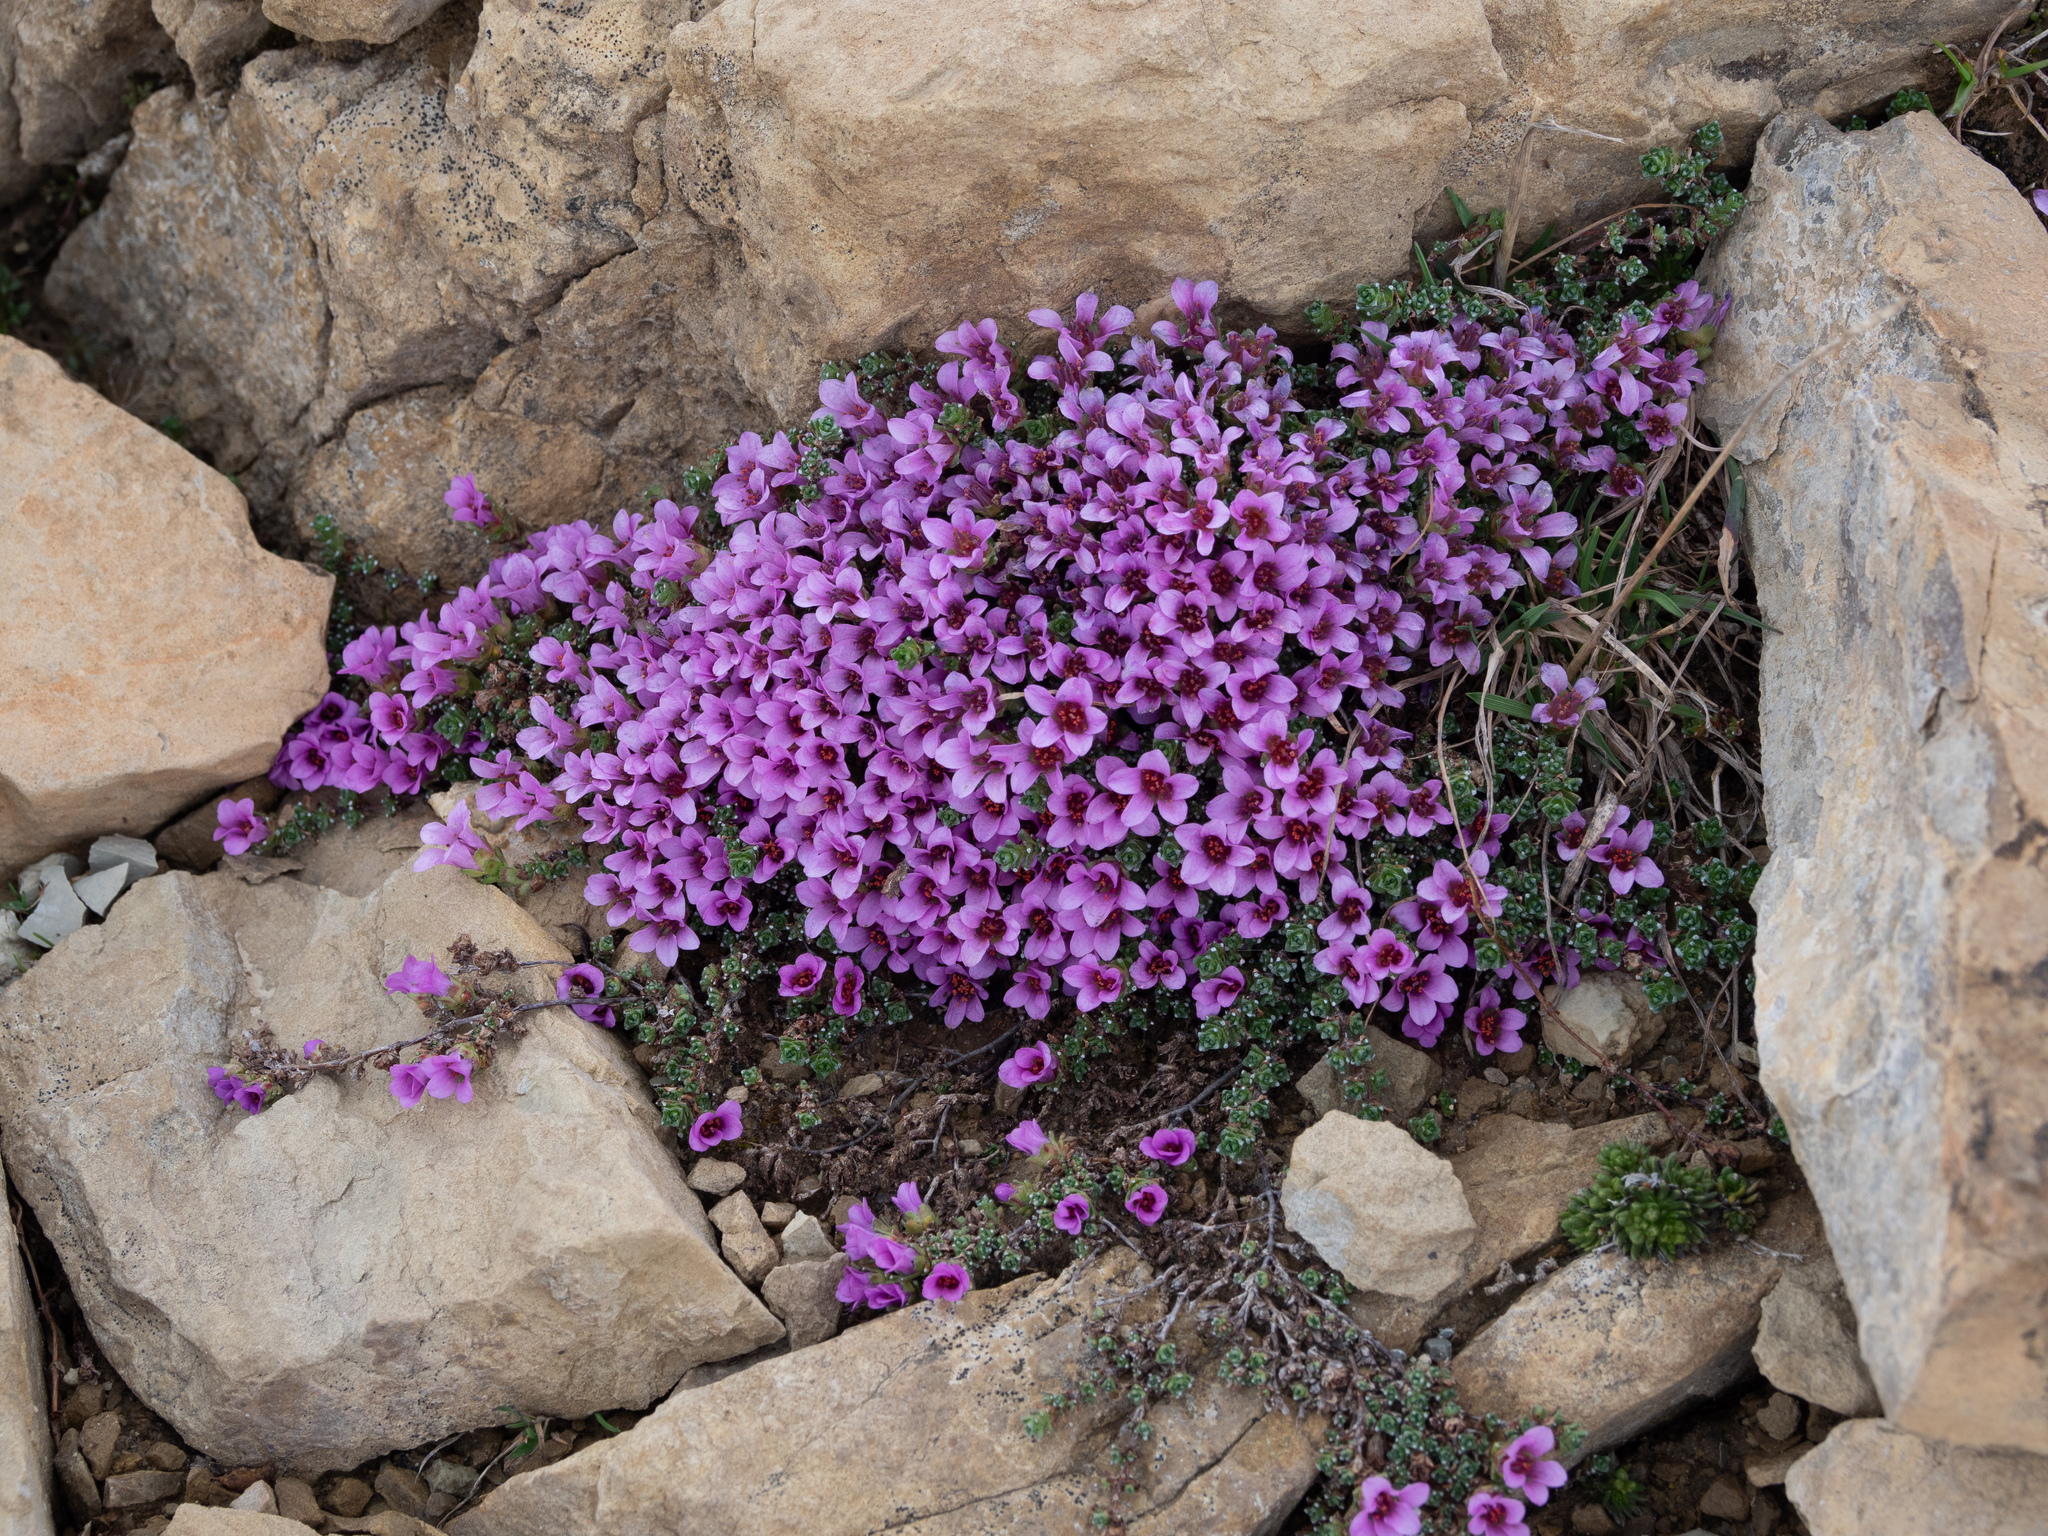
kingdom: Plantae
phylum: Tracheophyta
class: Magnoliopsida
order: Saxifragales
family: Saxifragaceae
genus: Saxifraga
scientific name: Saxifraga oppositifolia
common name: Purple saxifrage
